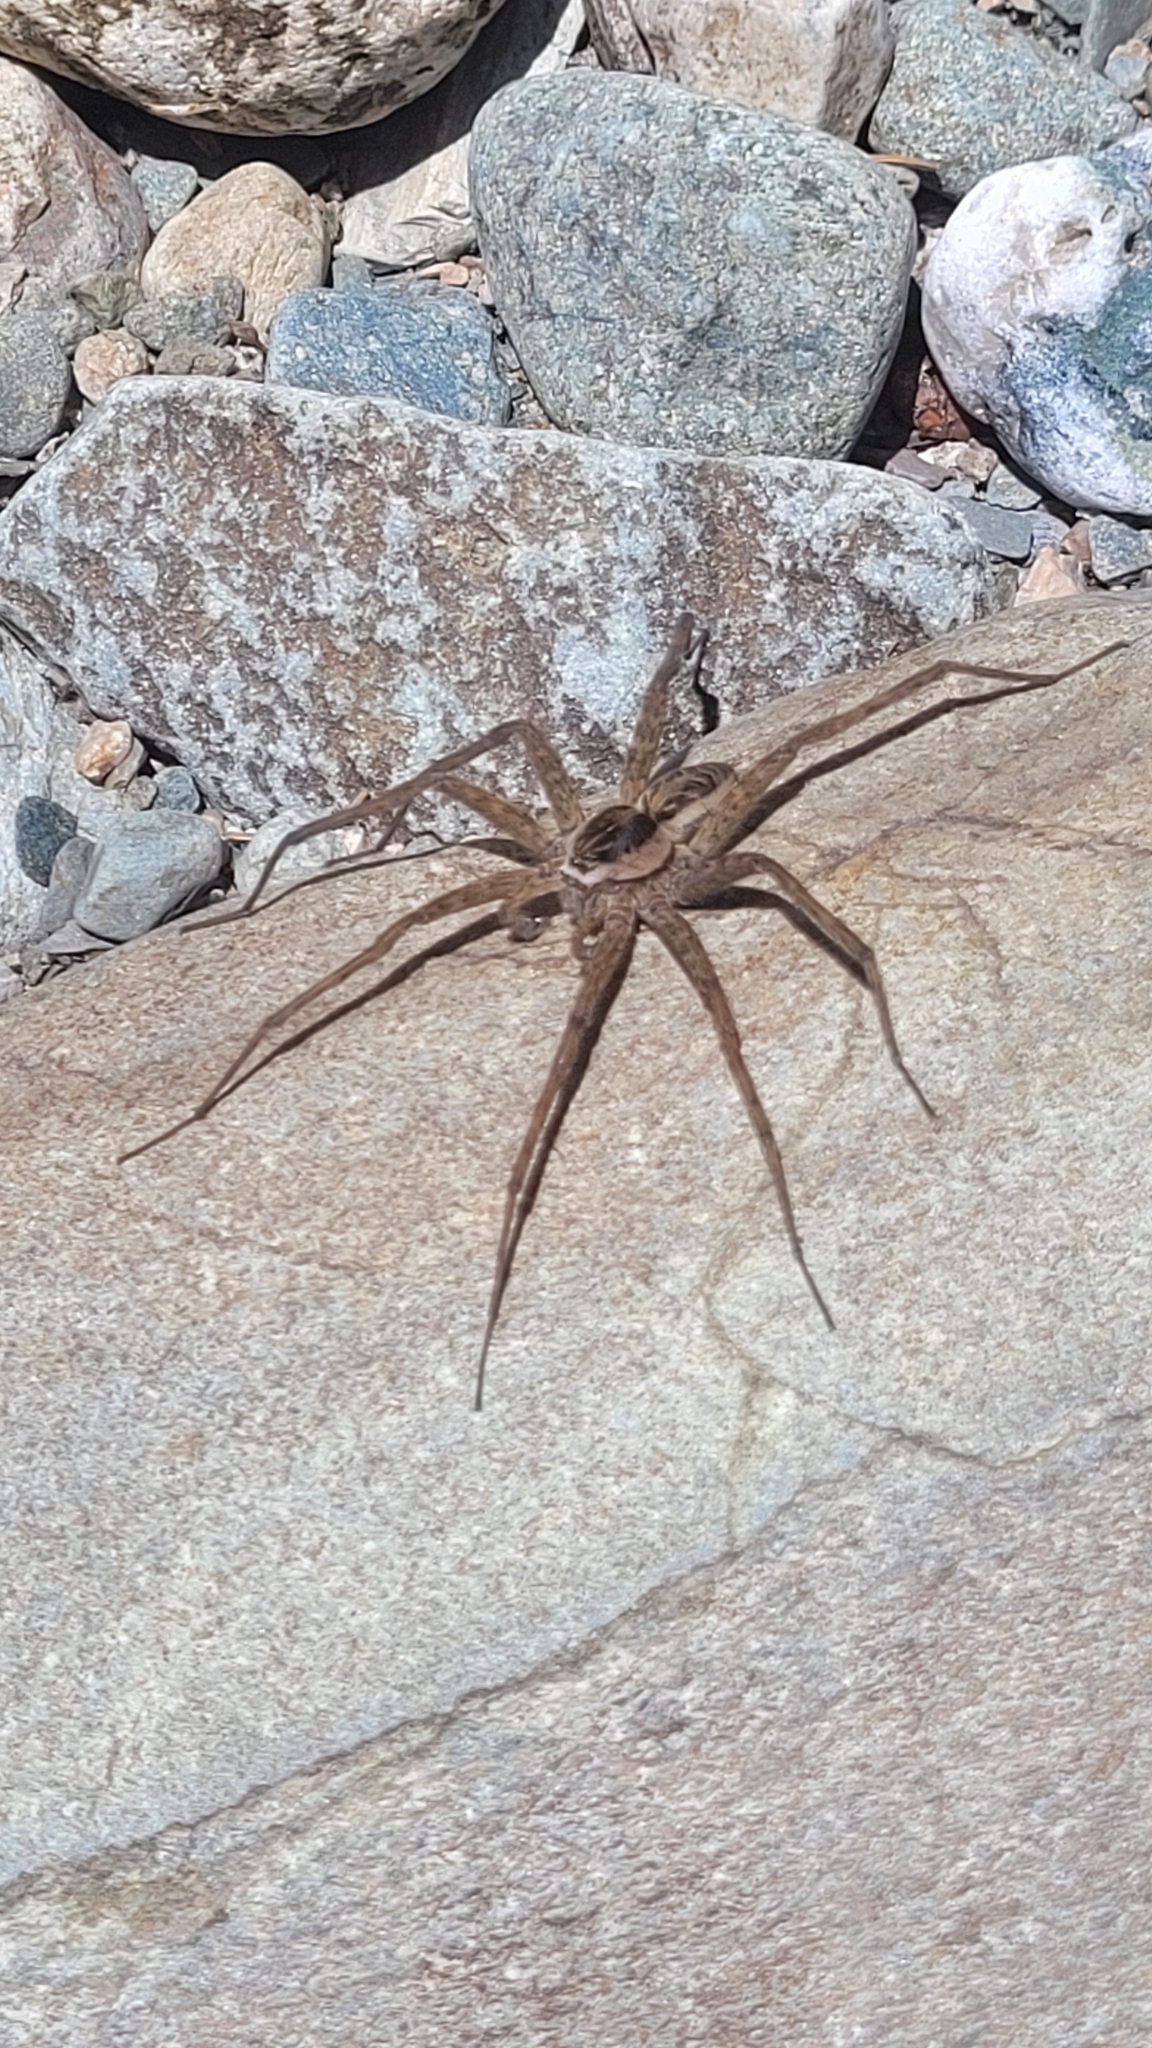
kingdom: Animalia
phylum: Arthropoda
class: Arachnida
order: Araneae
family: Pisauridae
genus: Dolomedes
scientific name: Dolomedes scriptus
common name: Striped fishing spider
